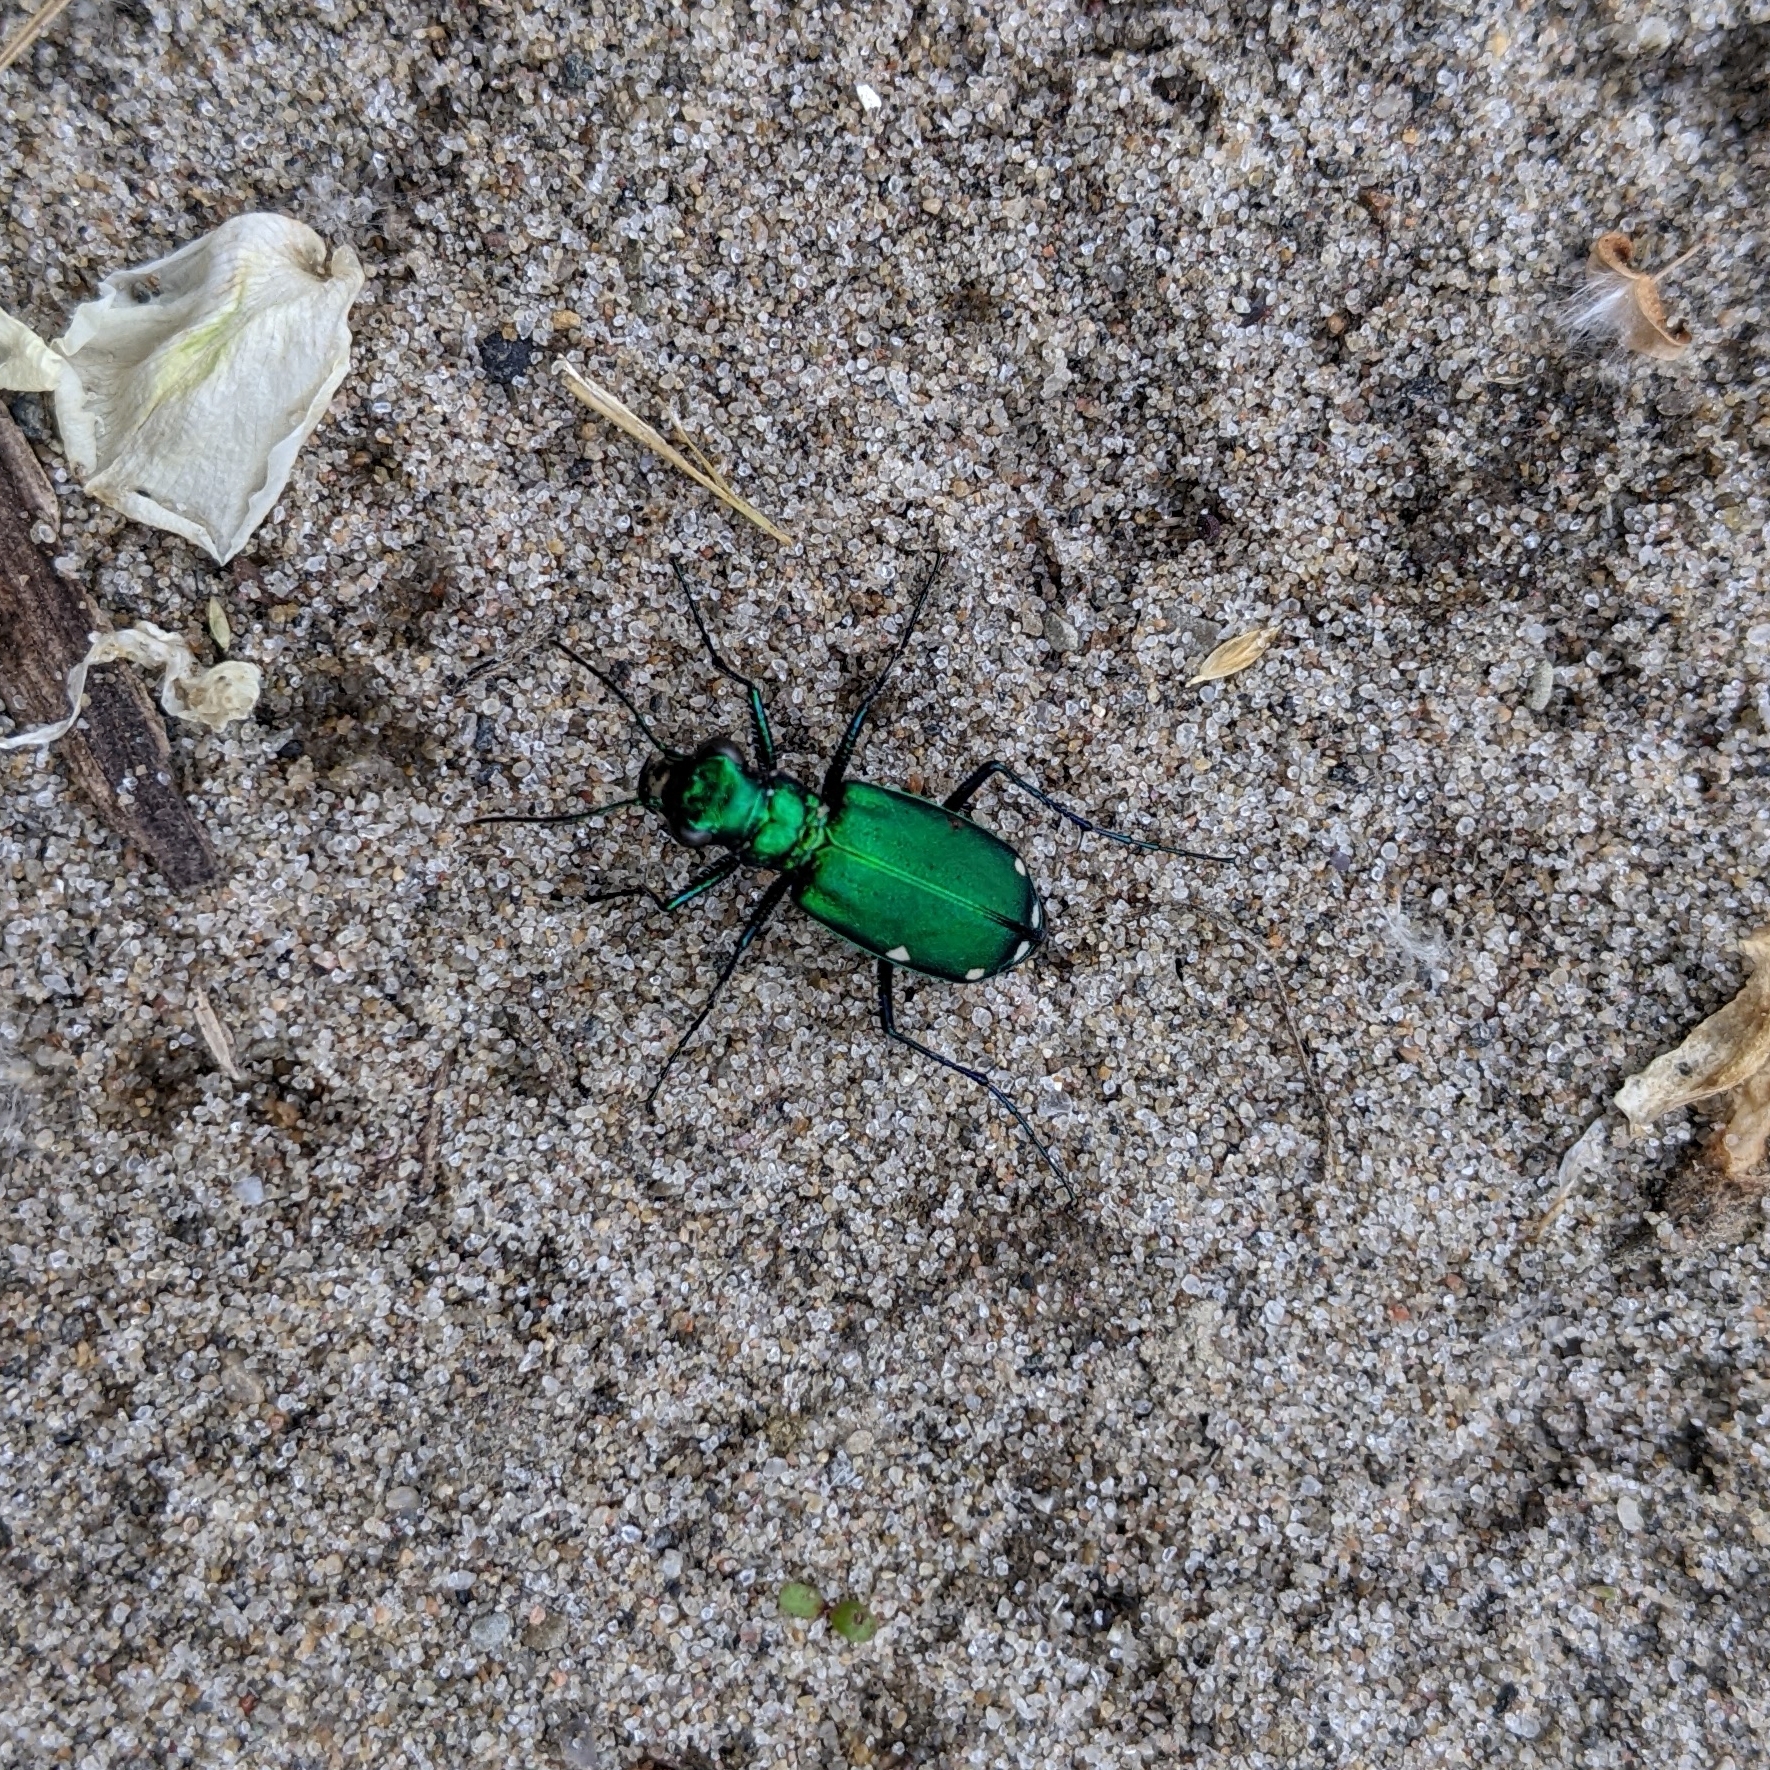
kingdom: Animalia
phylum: Arthropoda
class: Insecta
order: Coleoptera
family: Carabidae
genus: Cicindela
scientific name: Cicindela sexguttata
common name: Six-spotted tiger beetle
